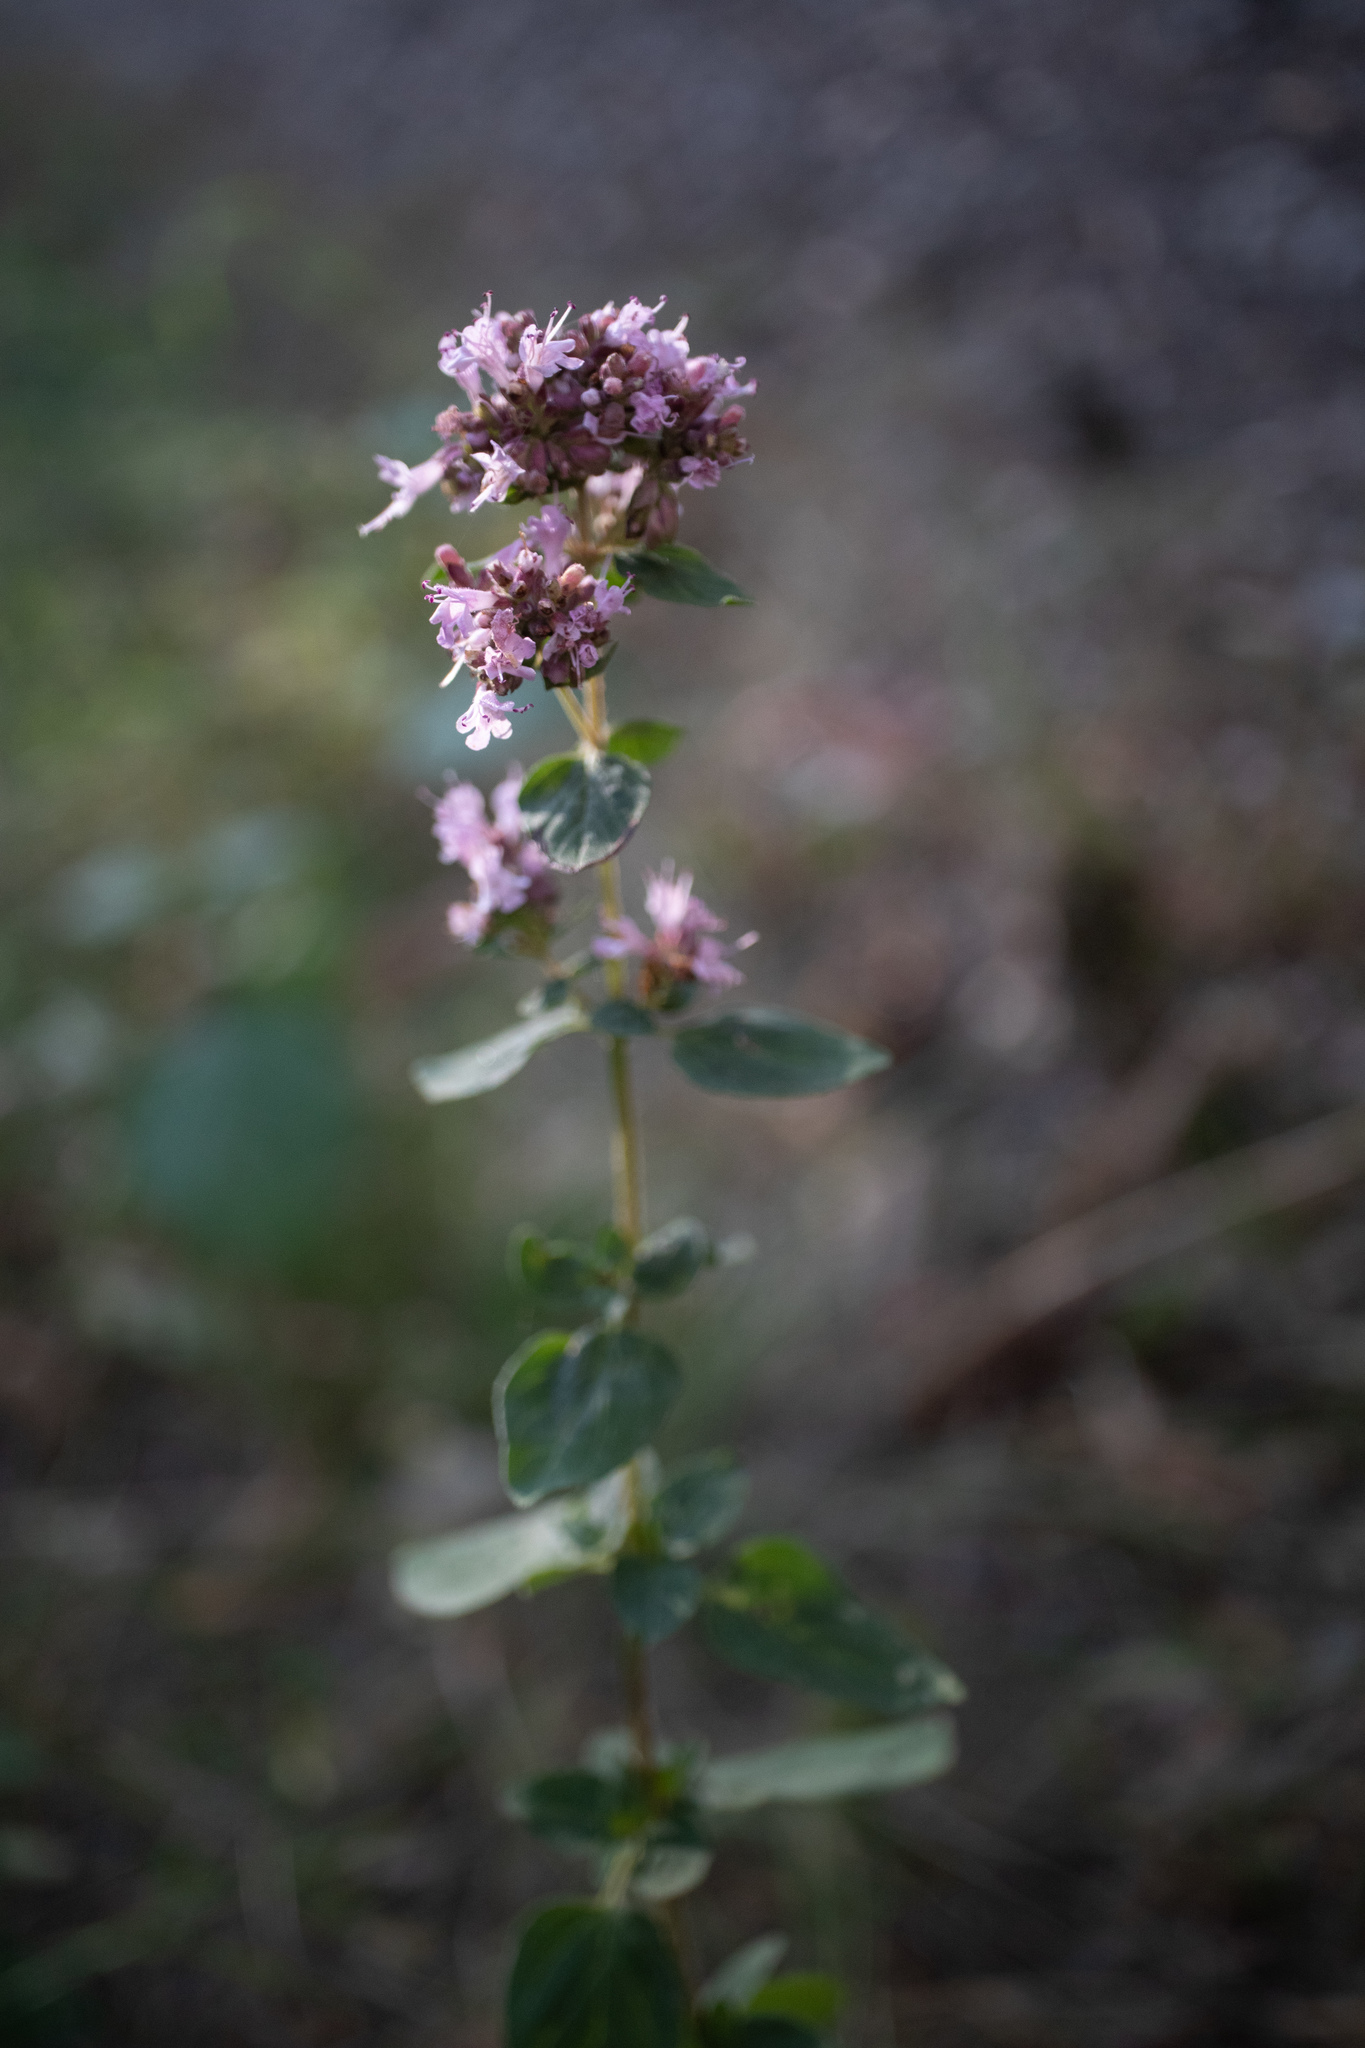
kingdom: Plantae
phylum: Tracheophyta
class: Magnoliopsida
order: Lamiales
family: Lamiaceae
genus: Origanum
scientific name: Origanum vulgare
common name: Wild marjoram
